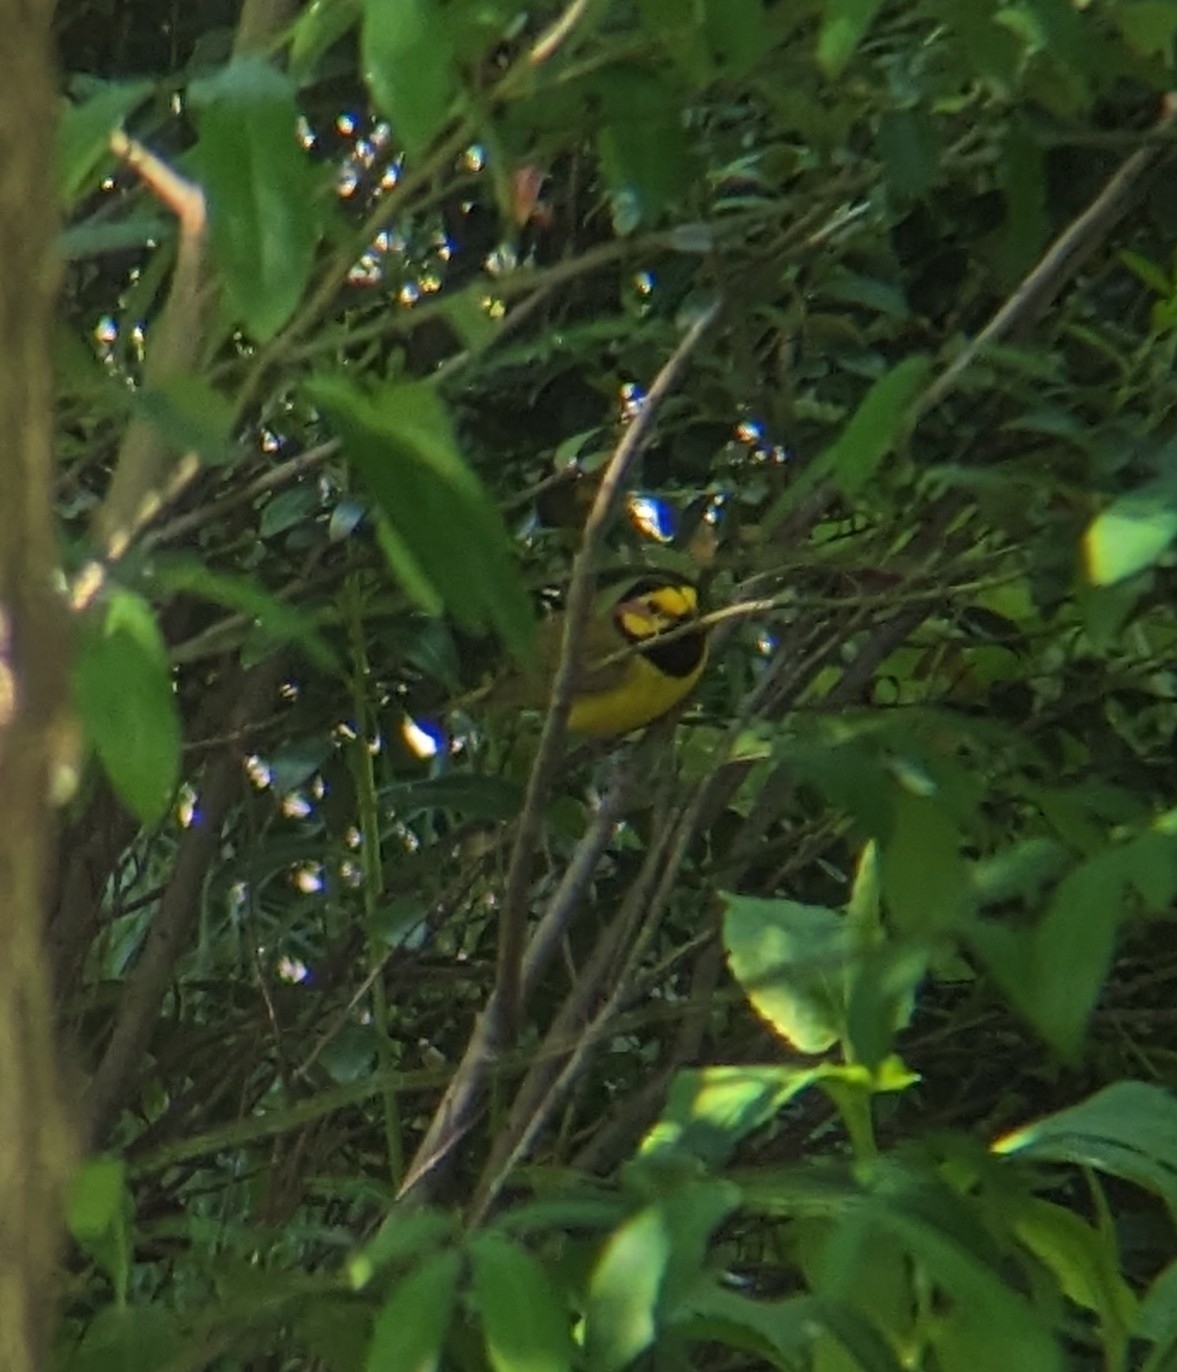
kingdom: Animalia
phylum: Chordata
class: Aves
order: Passeriformes
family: Parulidae
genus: Setophaga
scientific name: Setophaga citrina
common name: Hooded warbler
